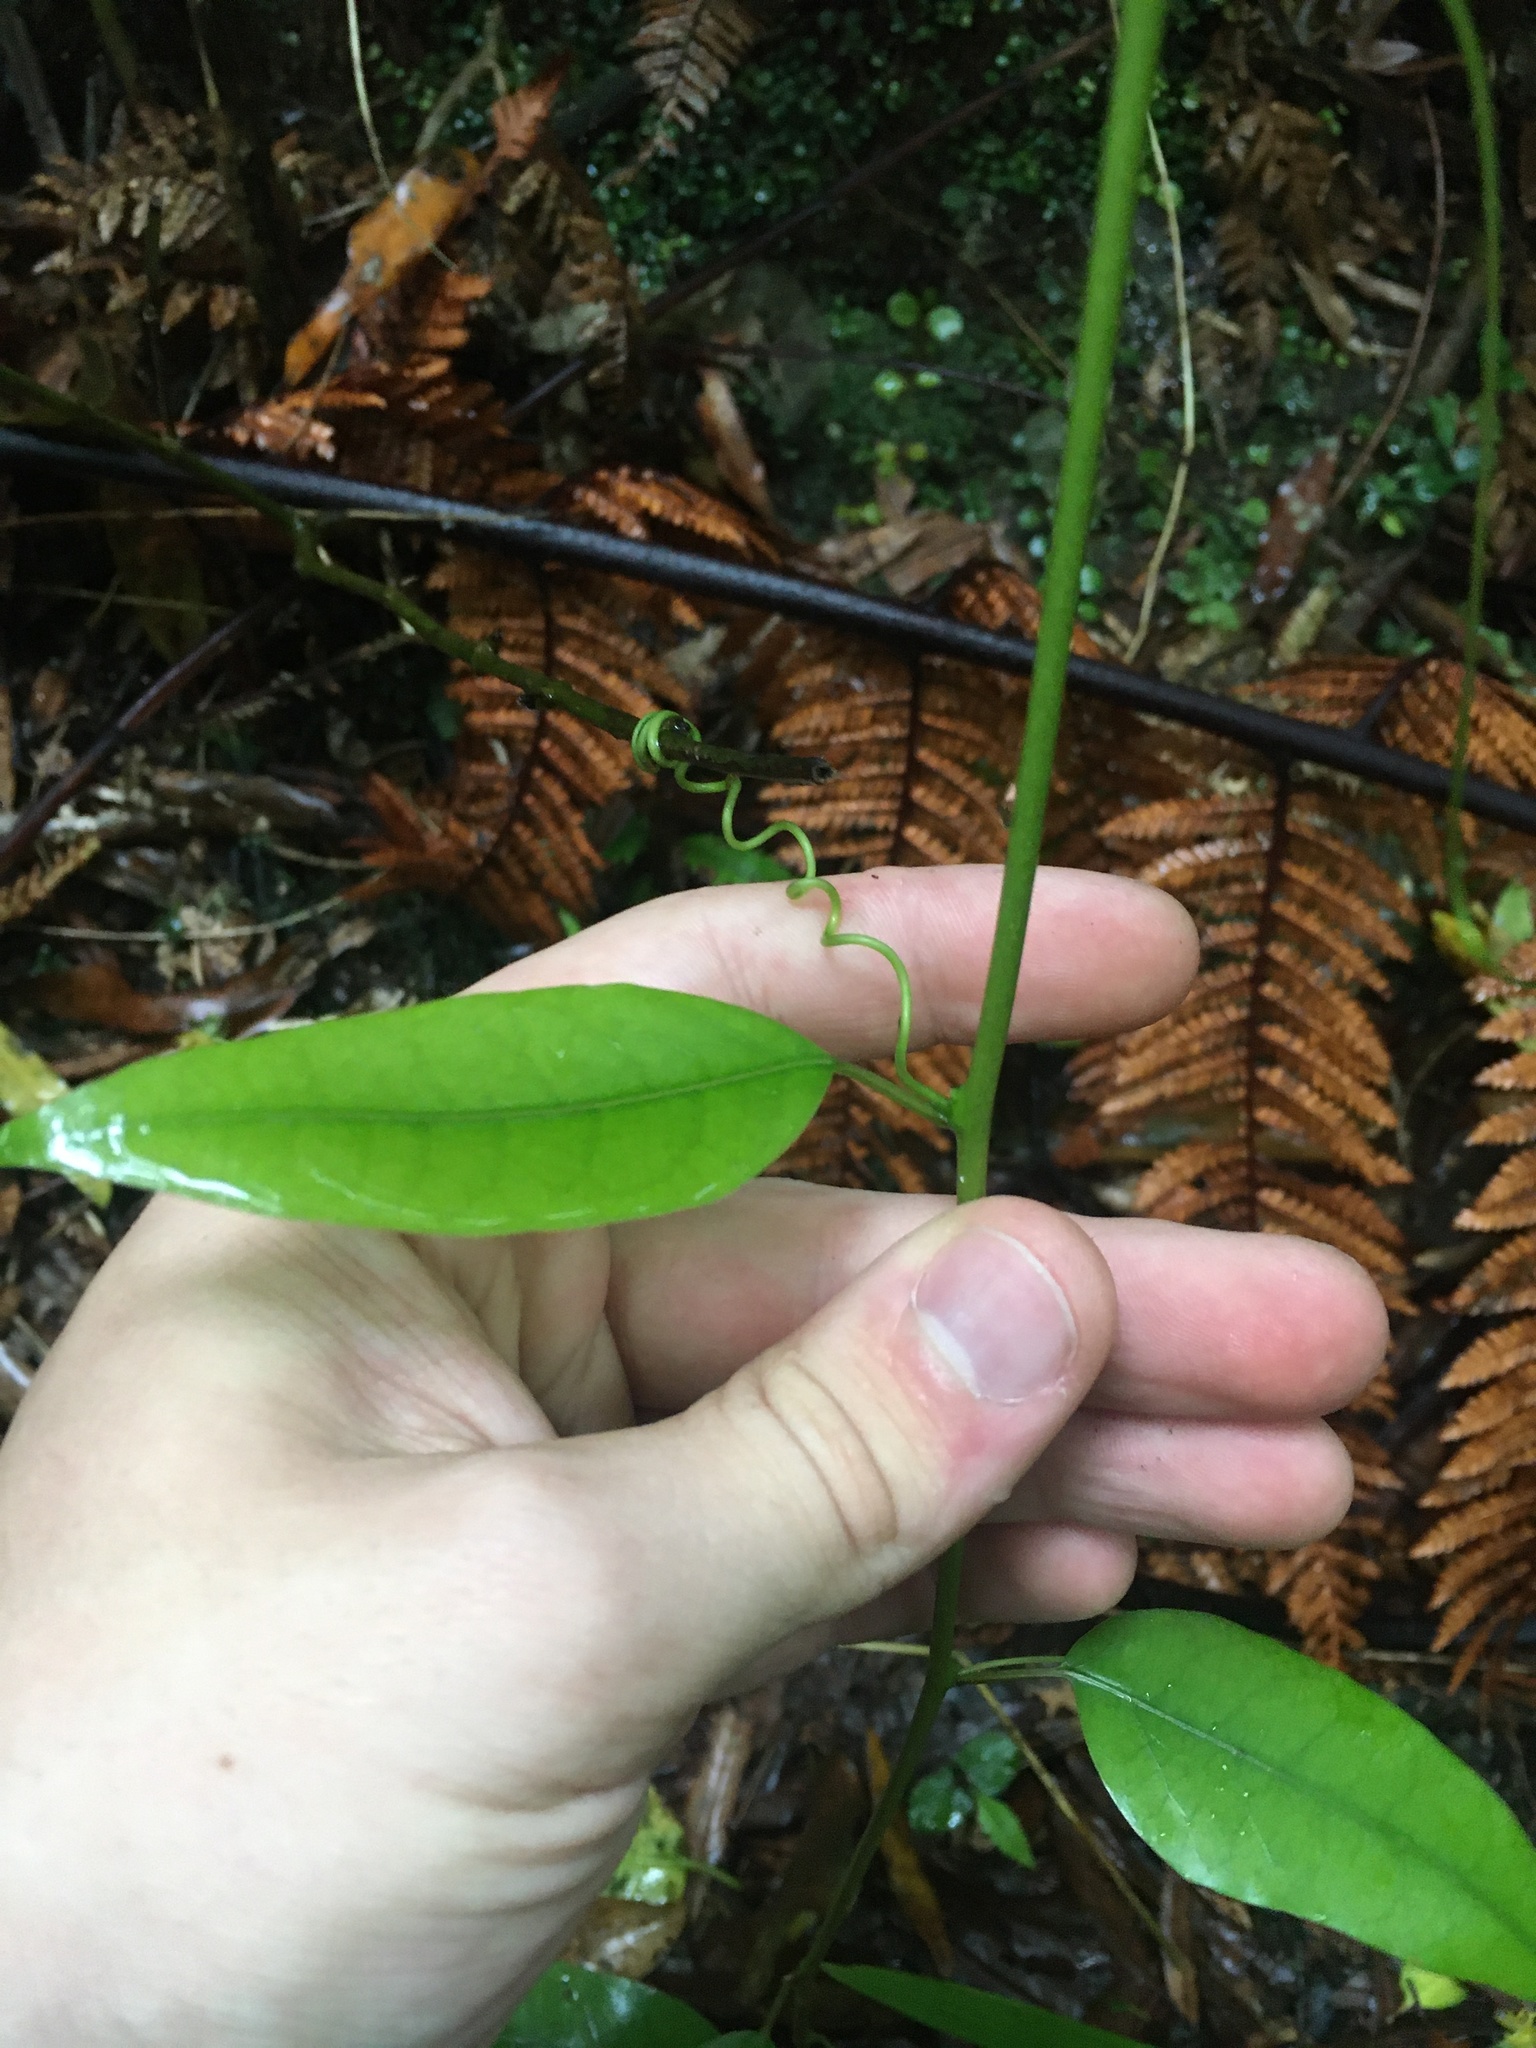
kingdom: Plantae
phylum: Tracheophyta
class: Magnoliopsida
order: Malpighiales
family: Passifloraceae
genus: Passiflora
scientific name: Passiflora tetrandra
